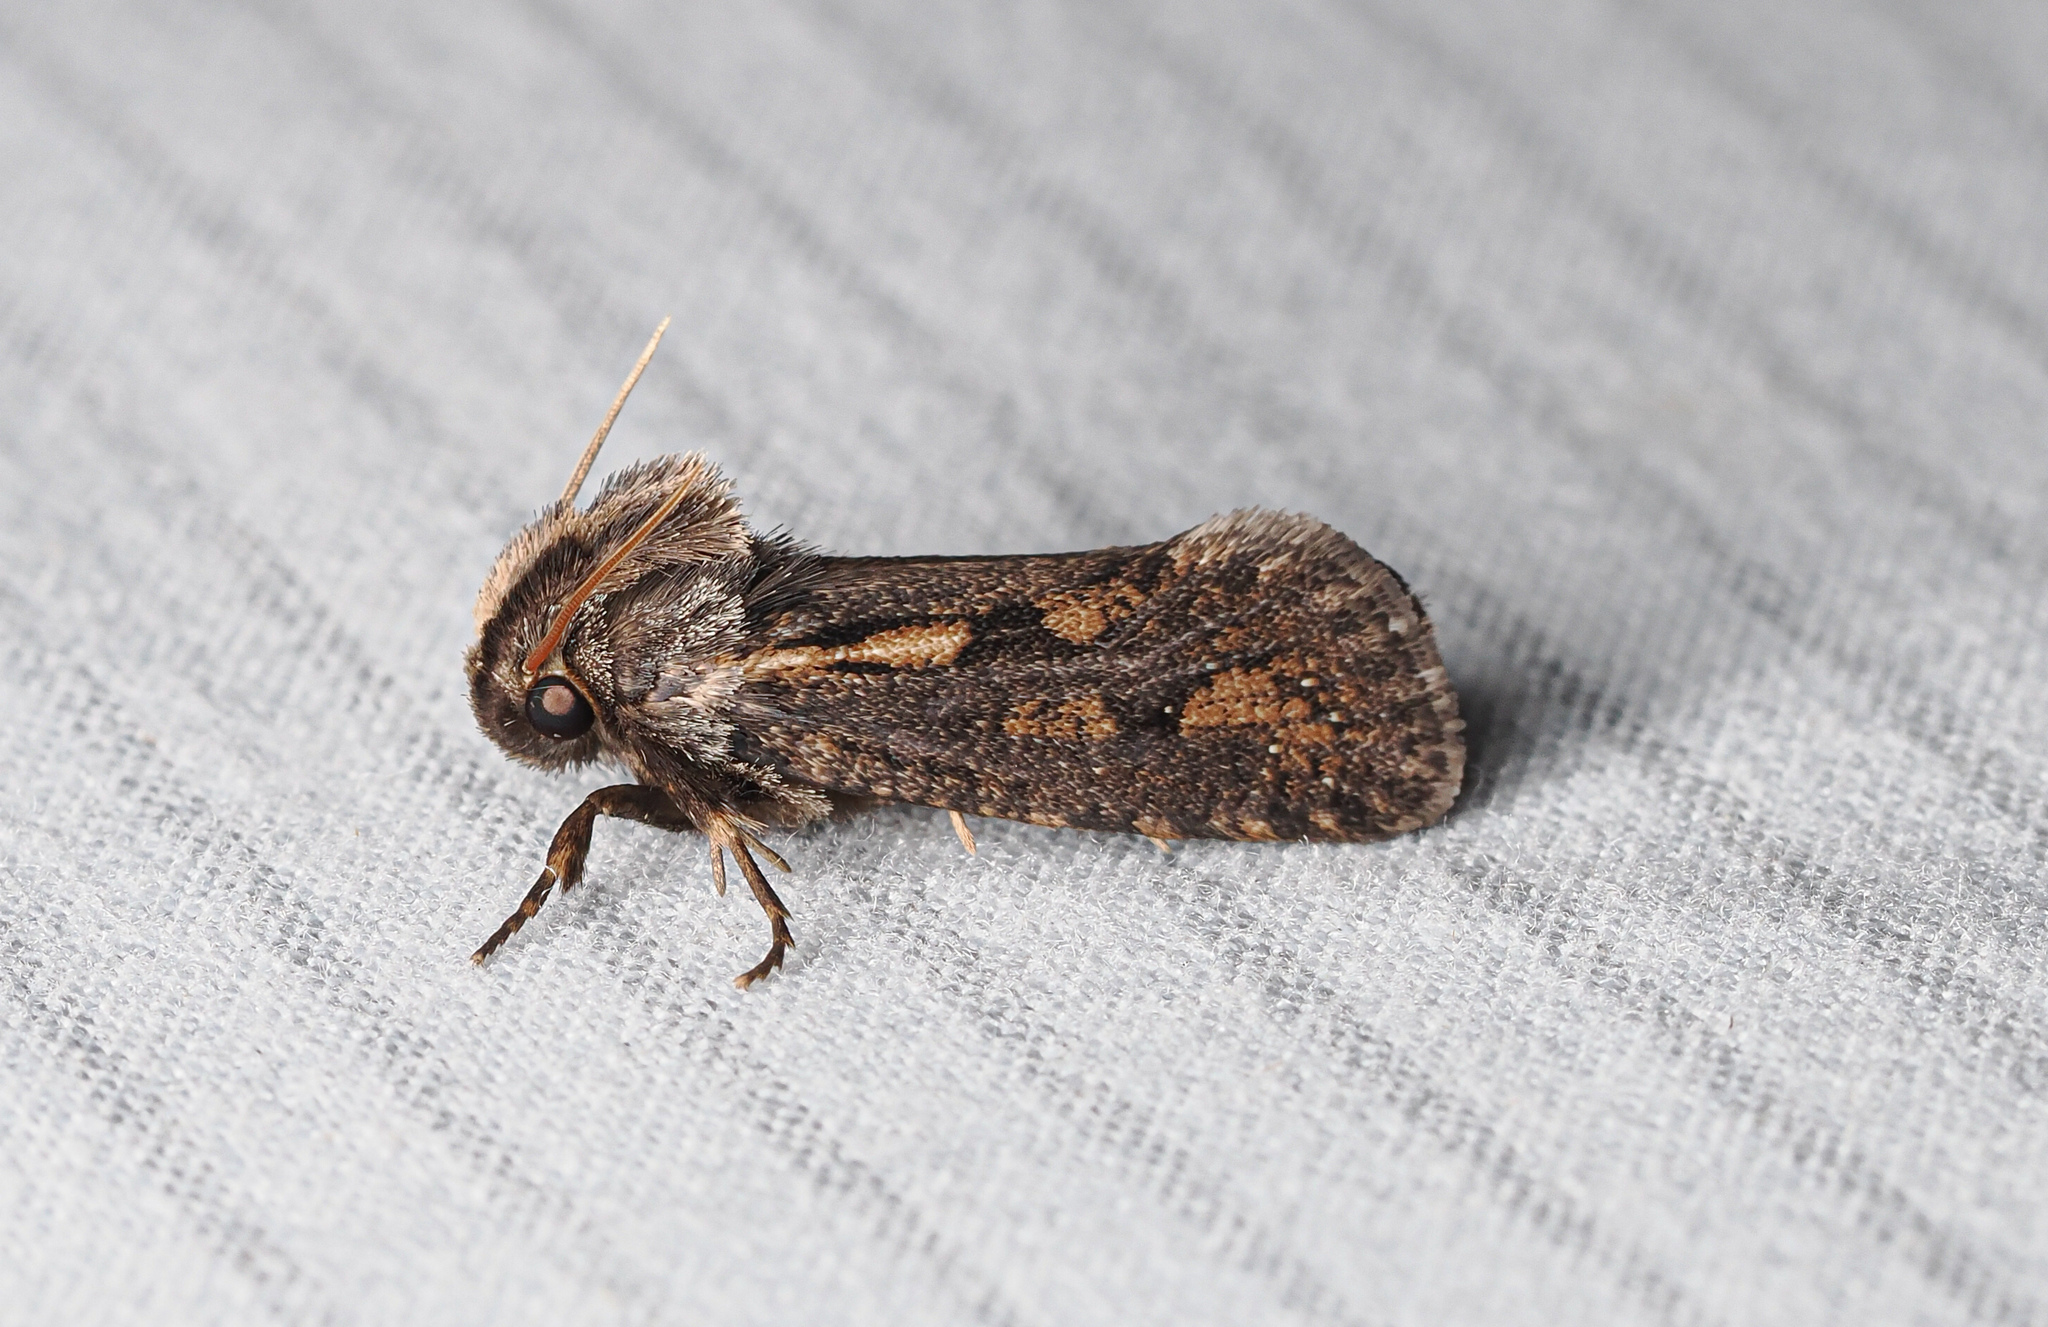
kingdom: Animalia
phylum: Arthropoda
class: Insecta
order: Lepidoptera
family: Tineidae
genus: Acrolophus
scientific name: Acrolophus popeanella
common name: Clemens' grass tubeworm moth
